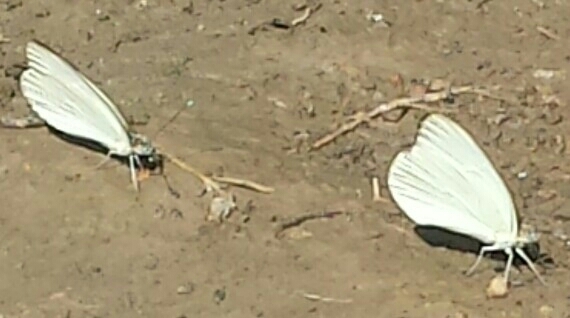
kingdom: Animalia
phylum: Arthropoda
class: Insecta
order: Lepidoptera
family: Pieridae
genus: Ascia
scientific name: Ascia monuste
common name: Great southern white
